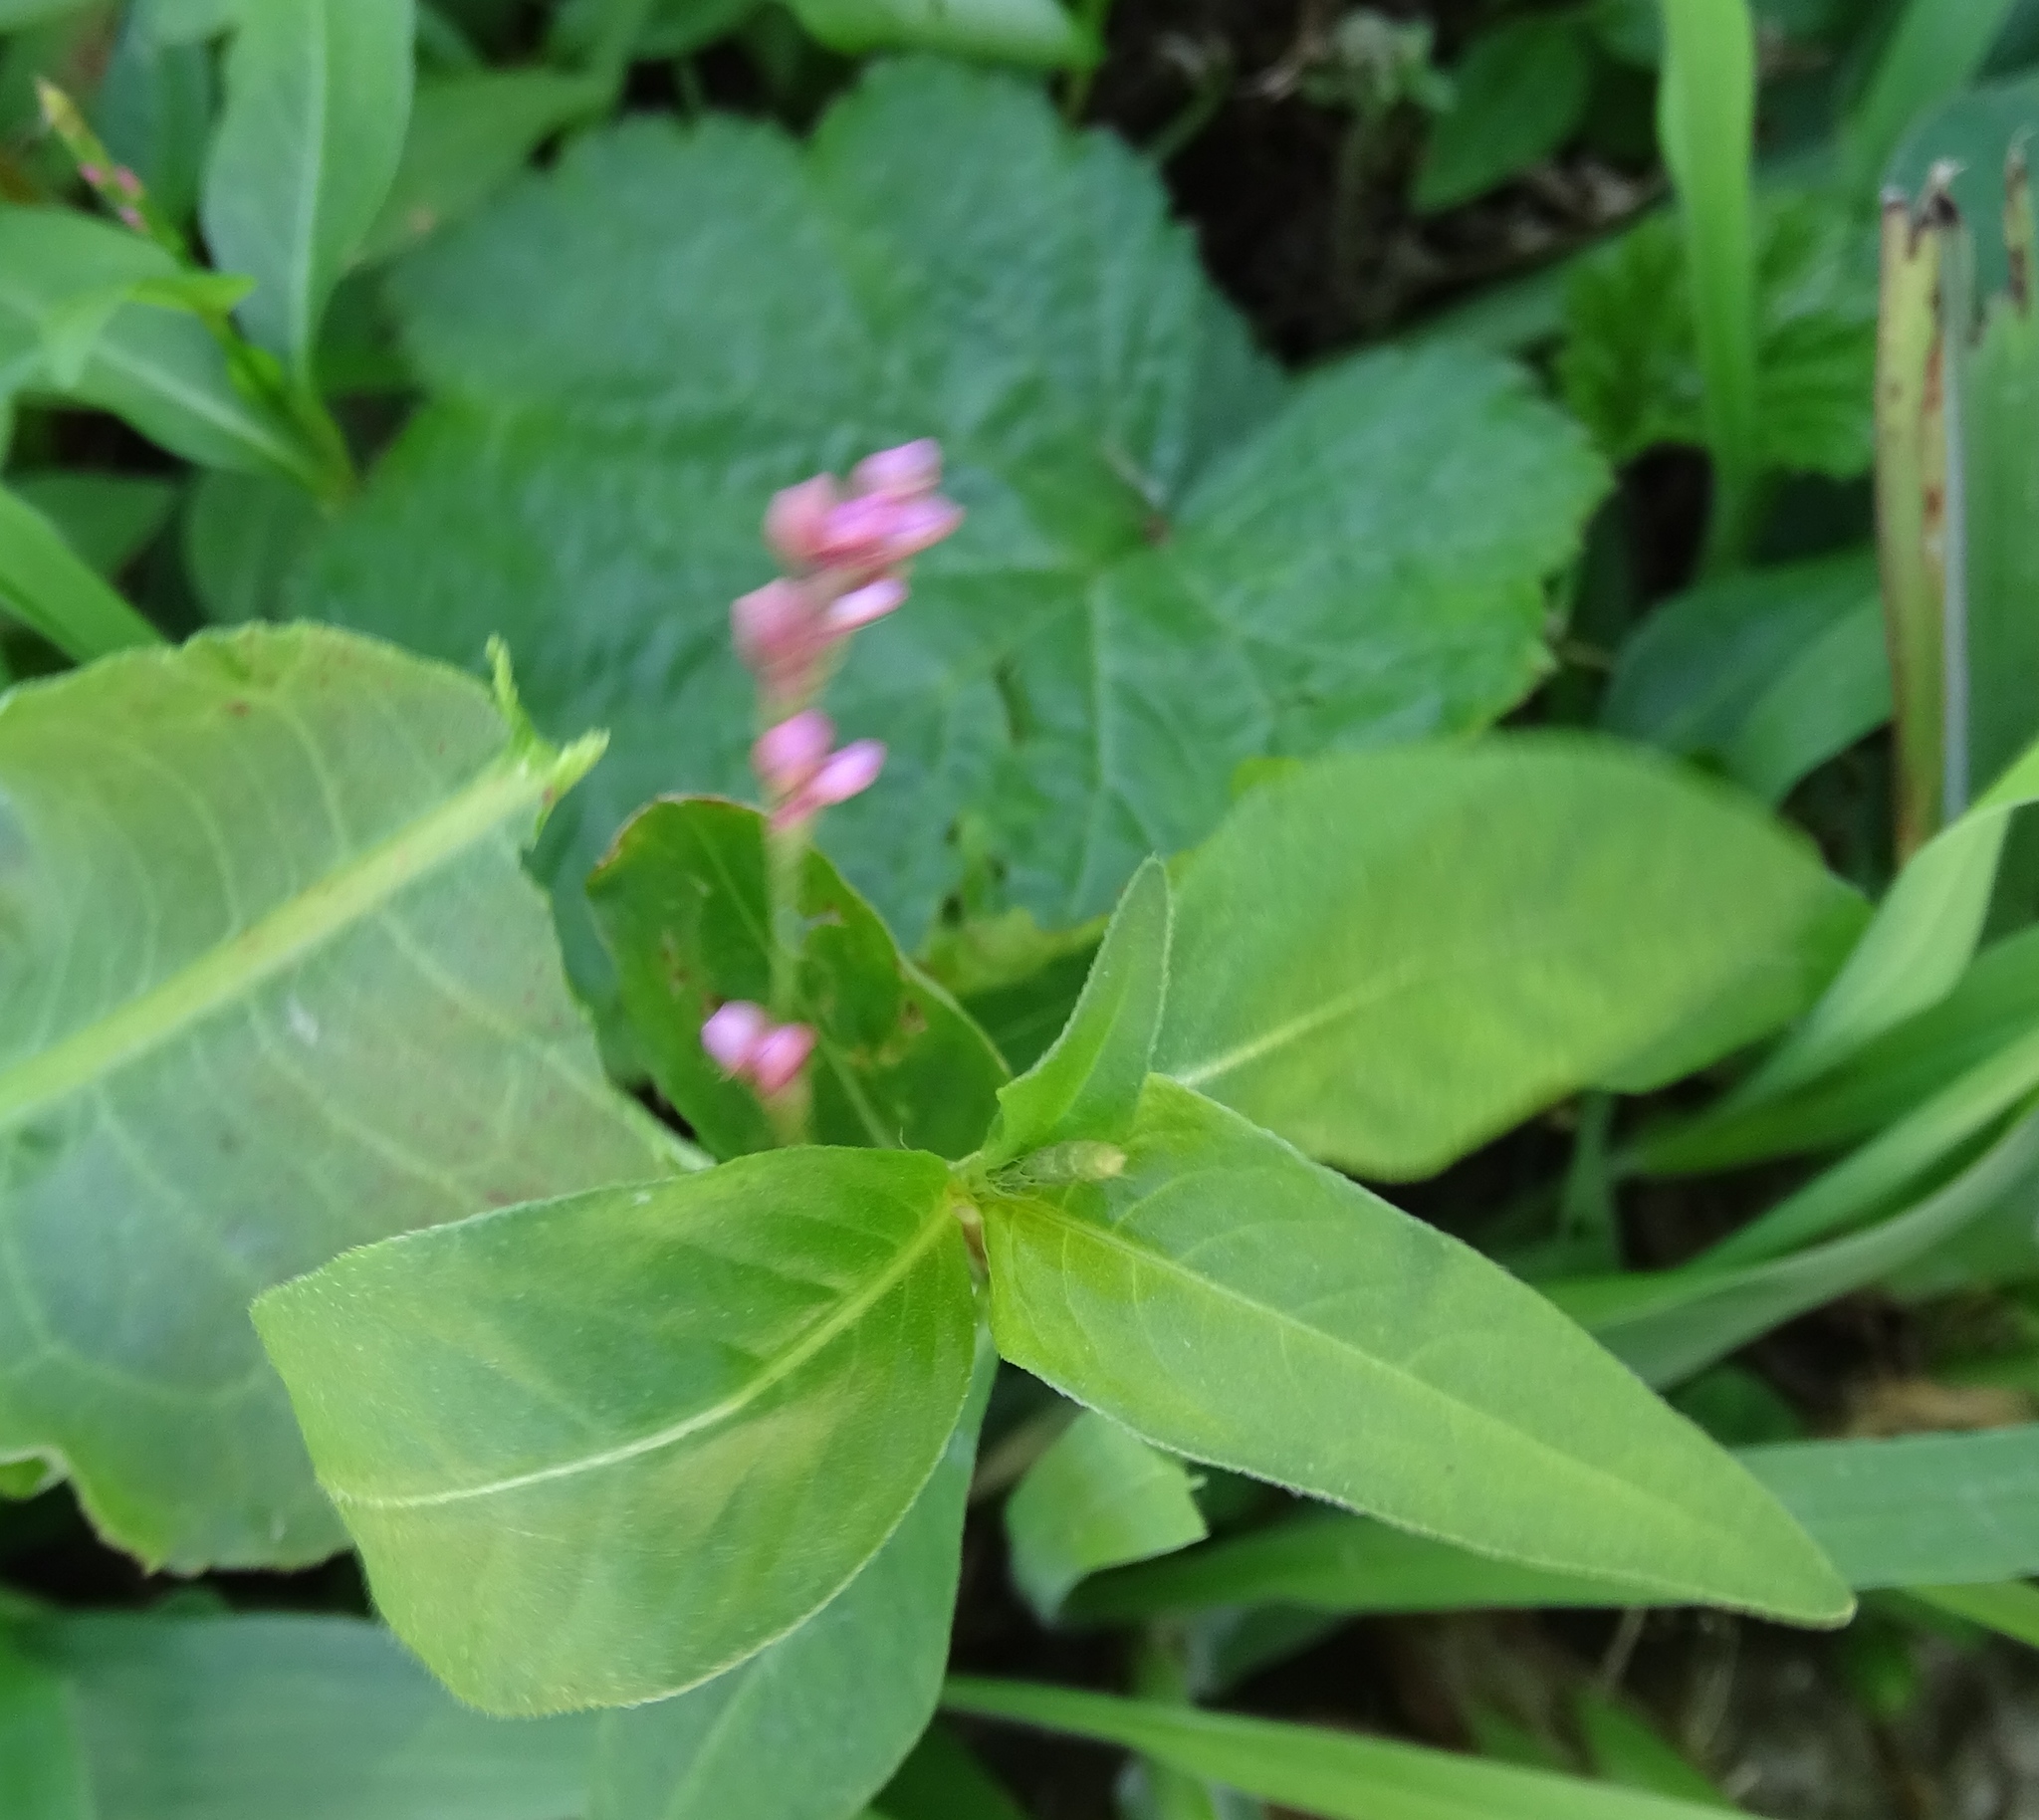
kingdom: Plantae
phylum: Tracheophyta
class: Magnoliopsida
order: Caryophyllales
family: Polygonaceae
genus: Persicaria
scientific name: Persicaria longiseta
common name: Bristly lady's-thumb
